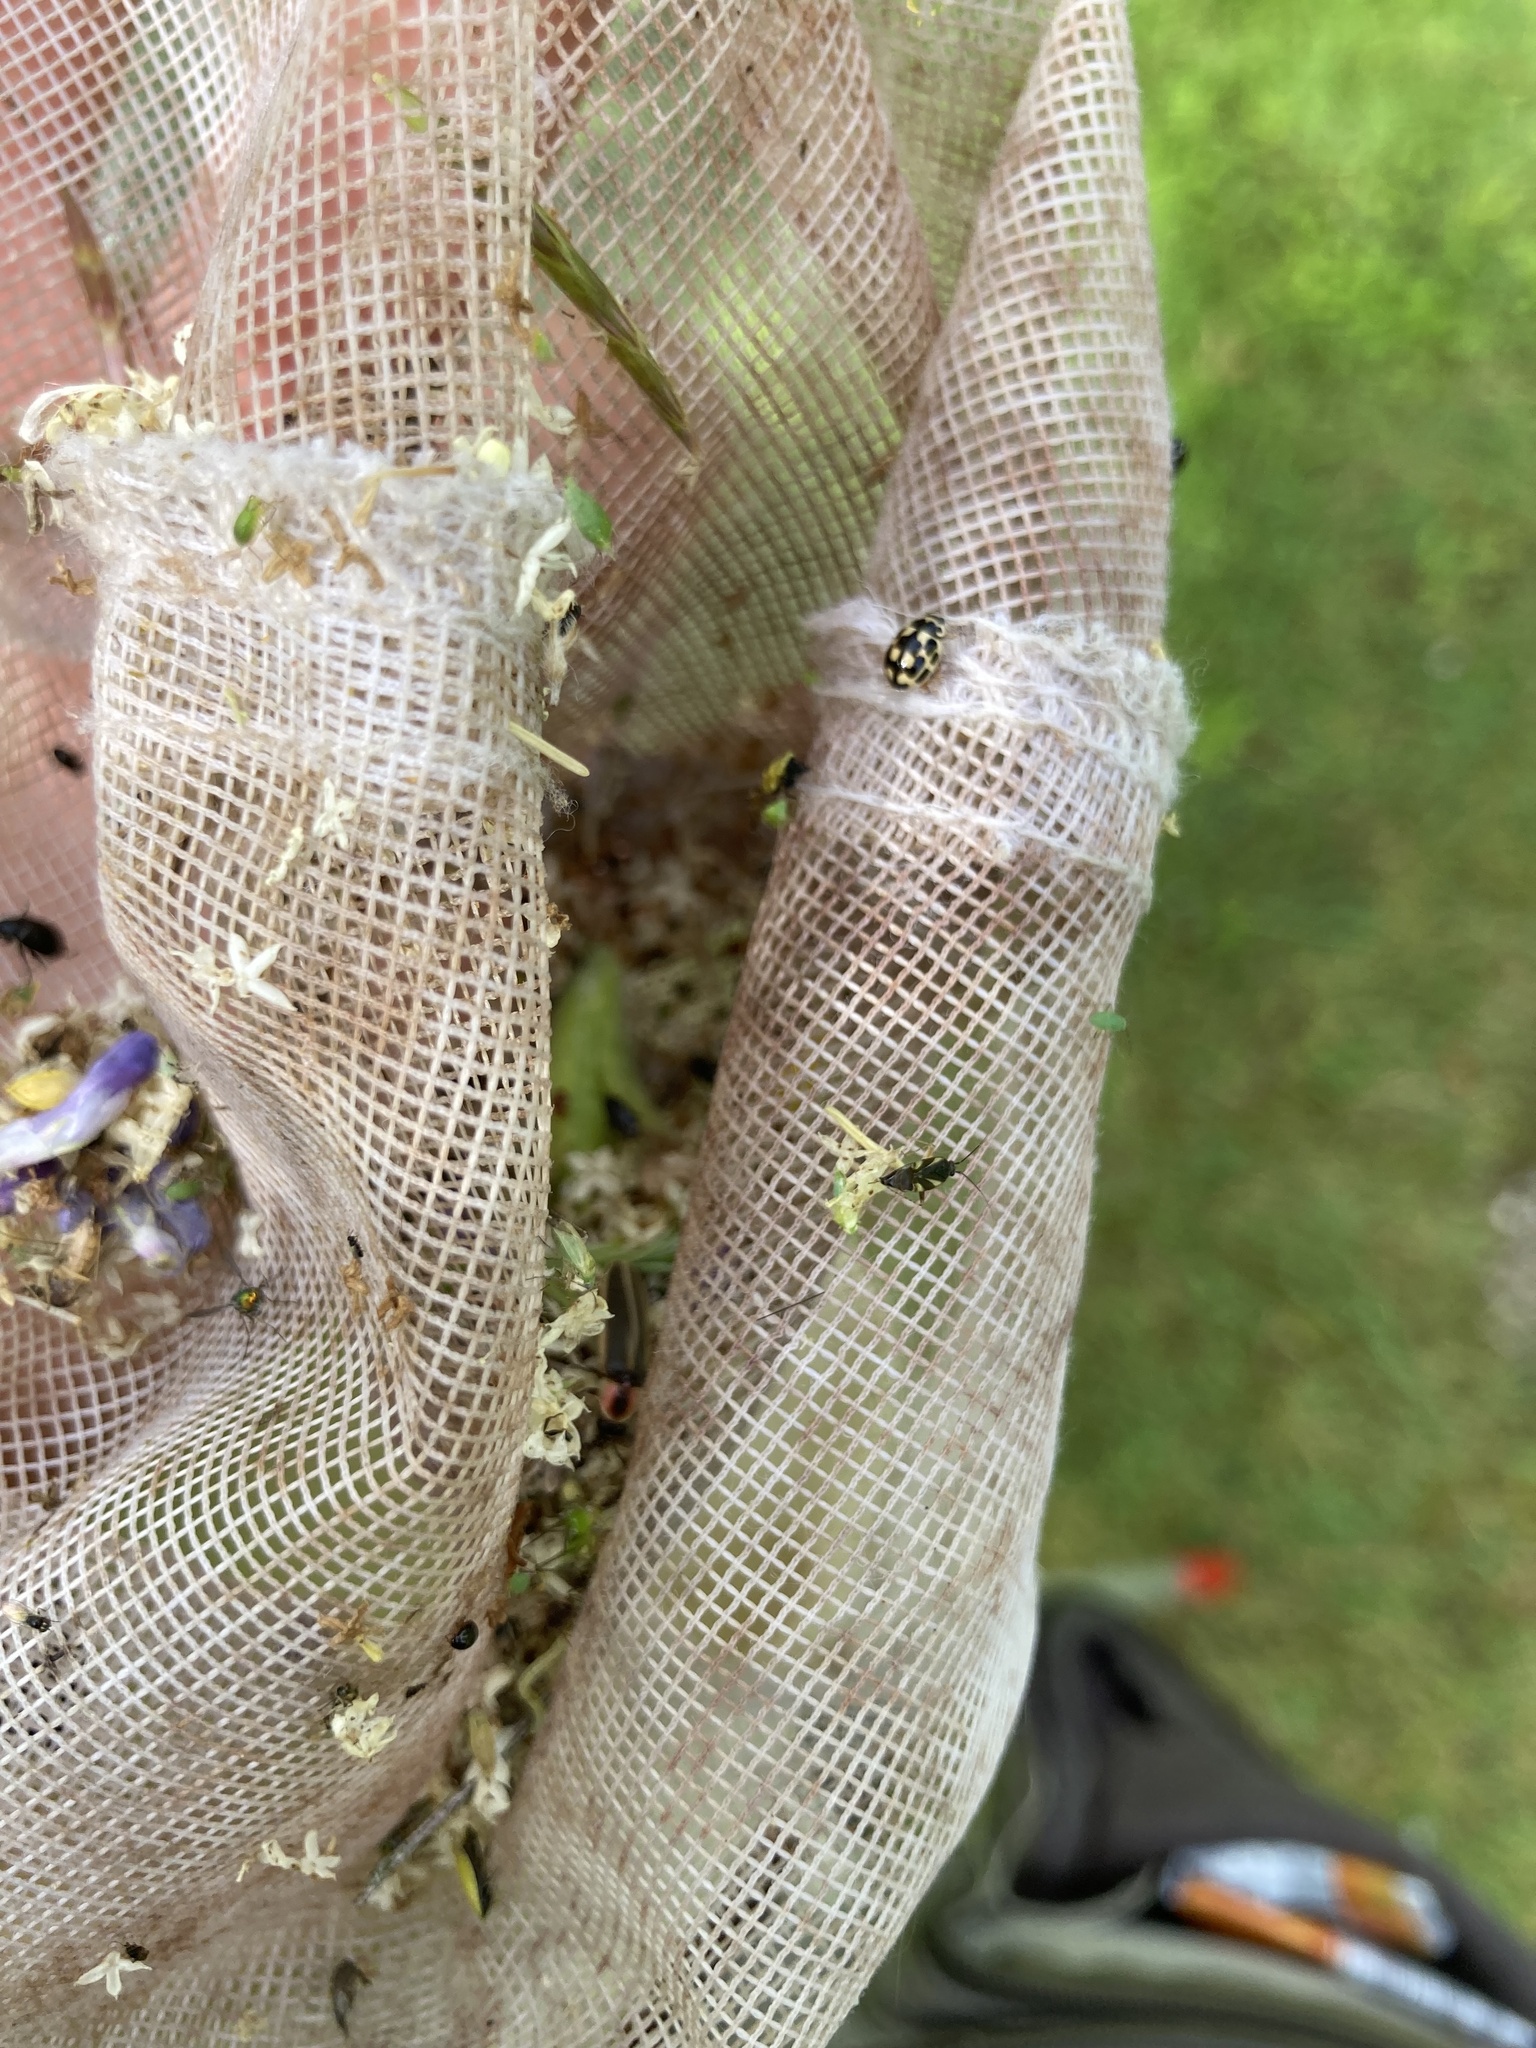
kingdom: Animalia
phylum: Arthropoda
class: Insecta
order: Coleoptera
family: Coccinellidae
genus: Propylaea
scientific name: Propylaea quatuordecimpunctata
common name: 14-spotted ladybird beetle
